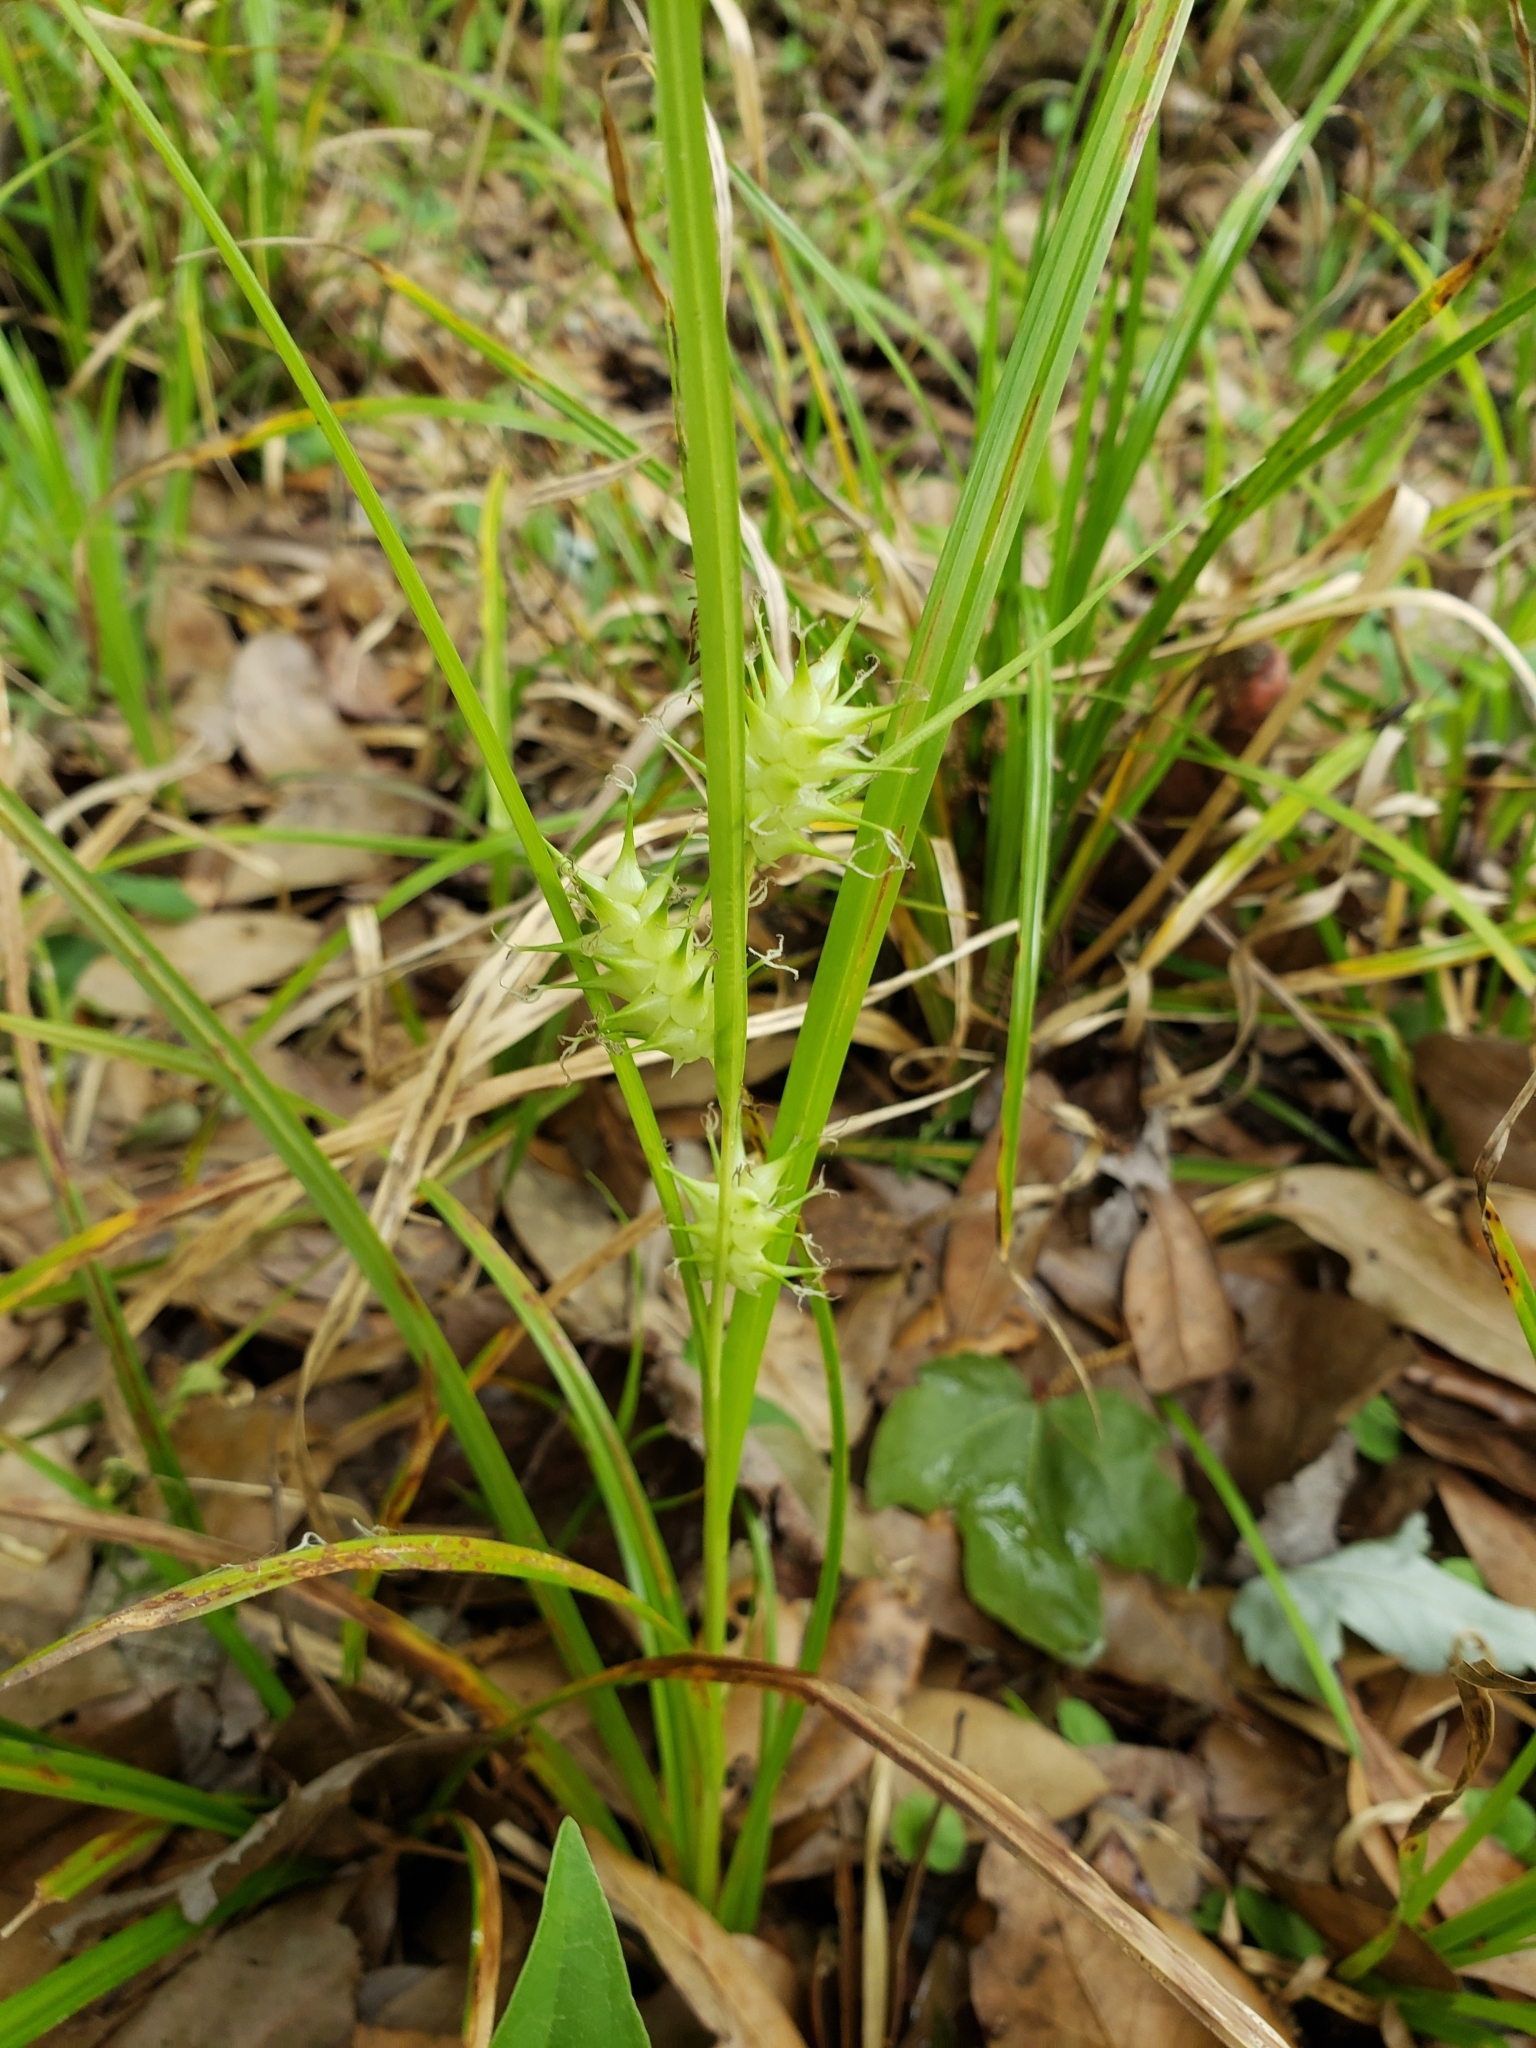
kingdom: Plantae
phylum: Tracheophyta
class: Liliopsida
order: Poales
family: Cyperaceae
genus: Carex
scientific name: Carex gigantea
